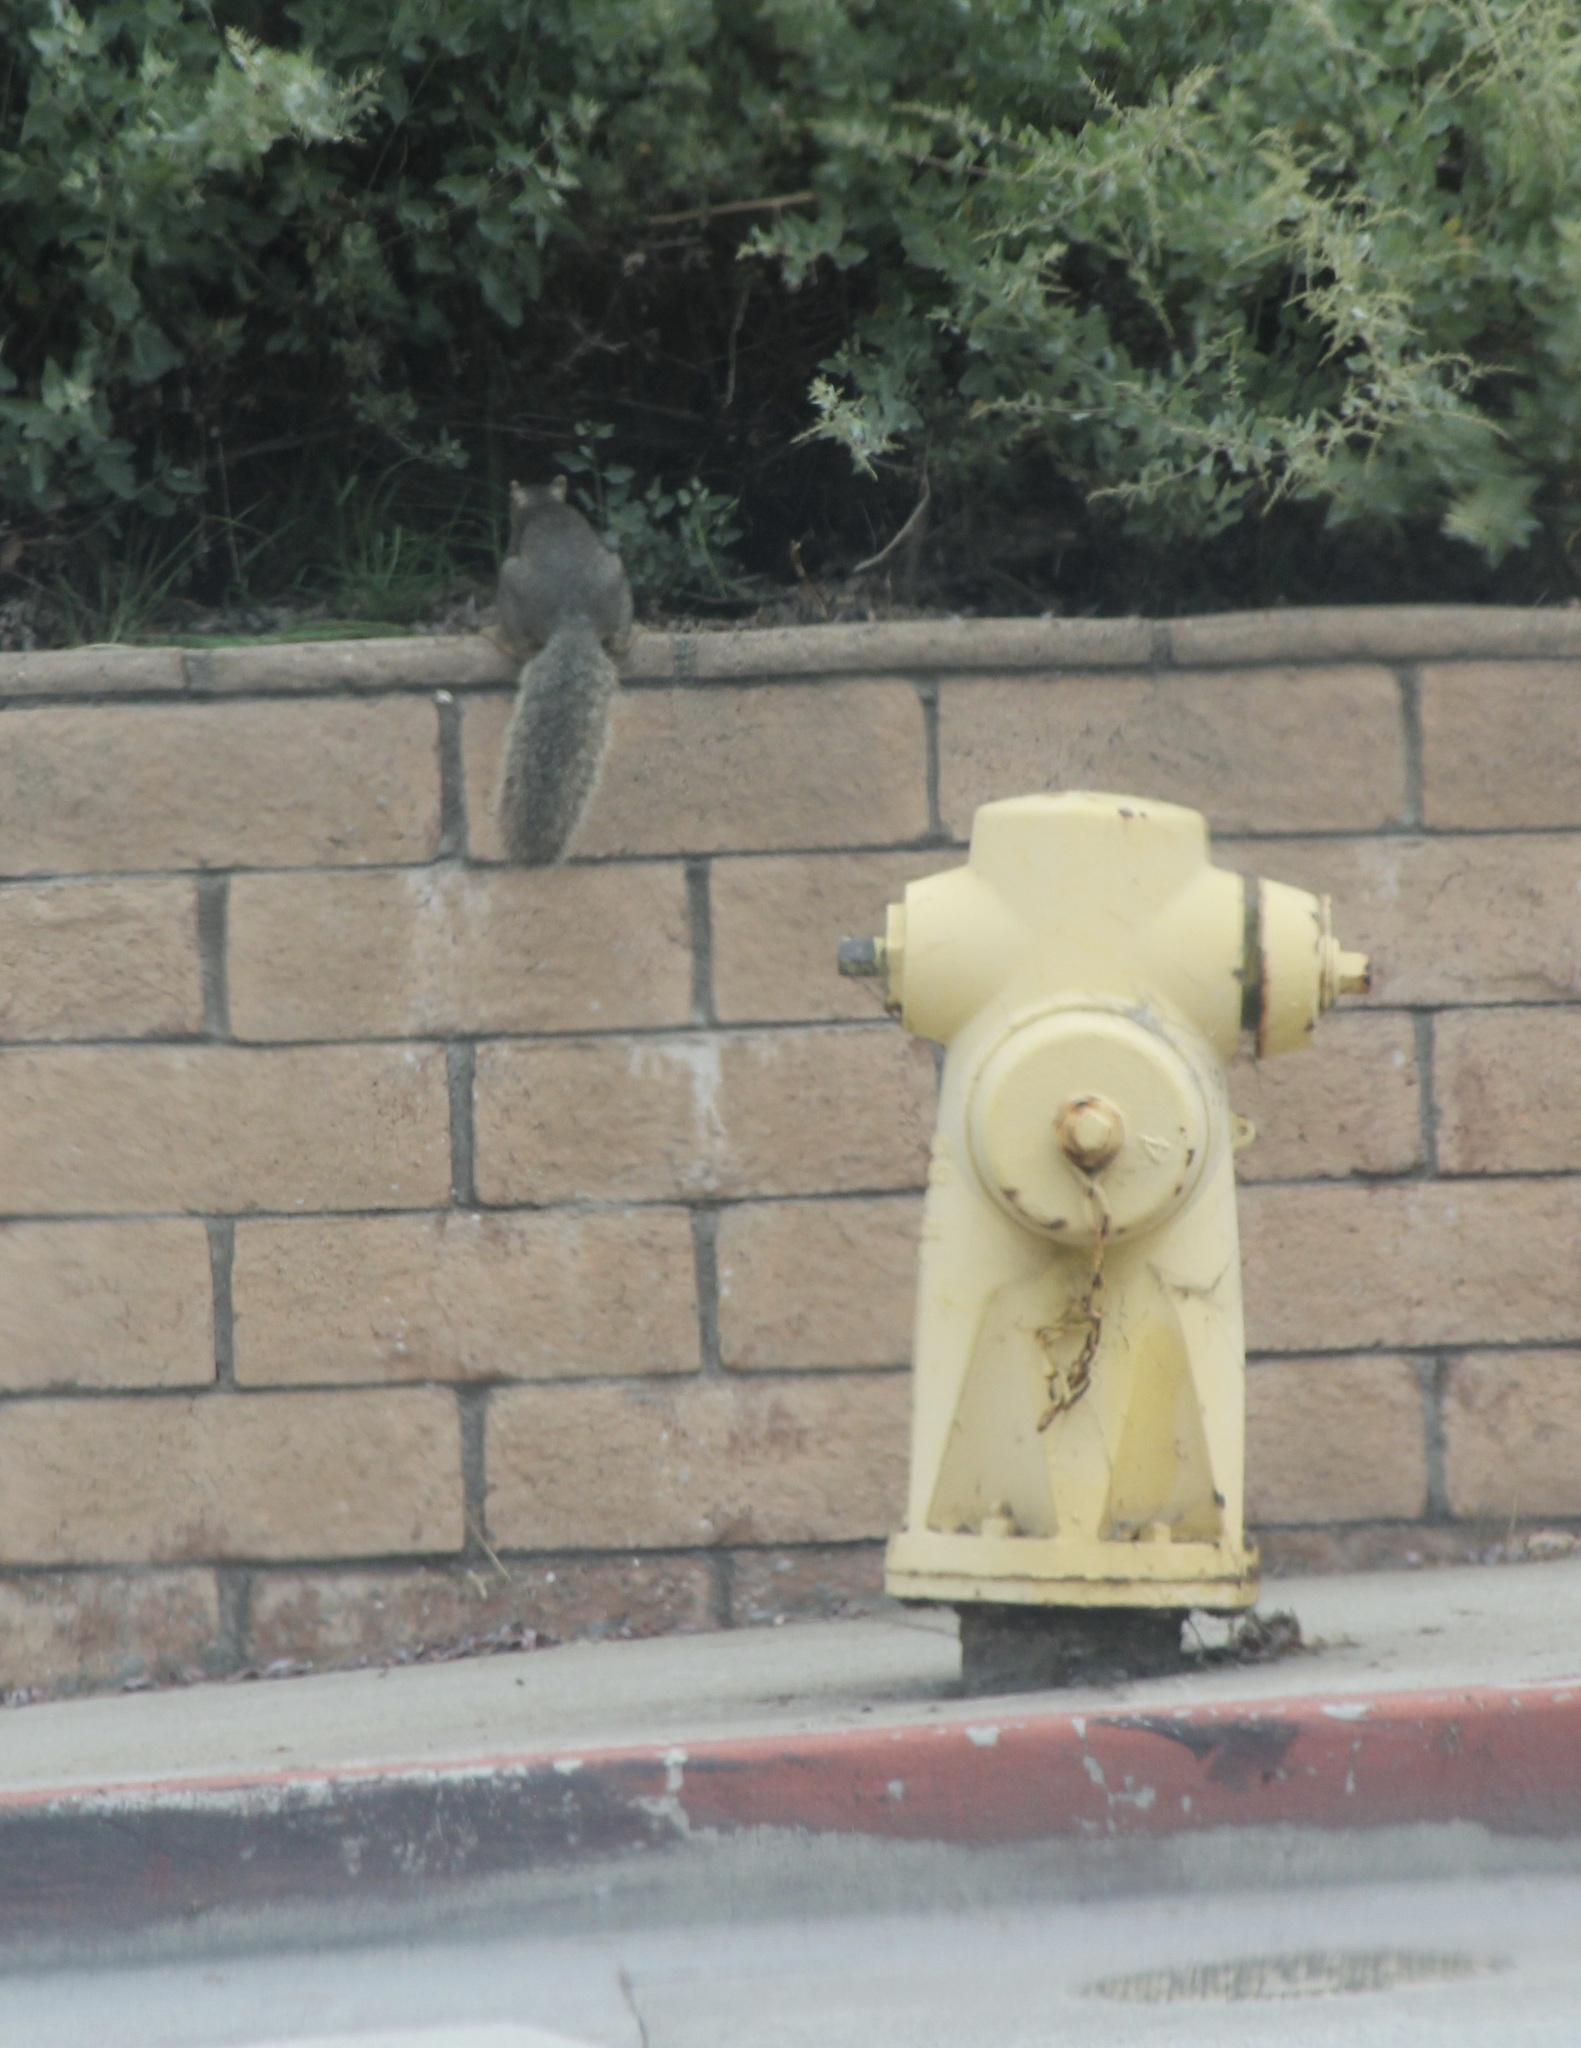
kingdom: Animalia
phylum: Chordata
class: Mammalia
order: Rodentia
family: Sciuridae
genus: Sciurus
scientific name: Sciurus niger
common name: Fox squirrel
